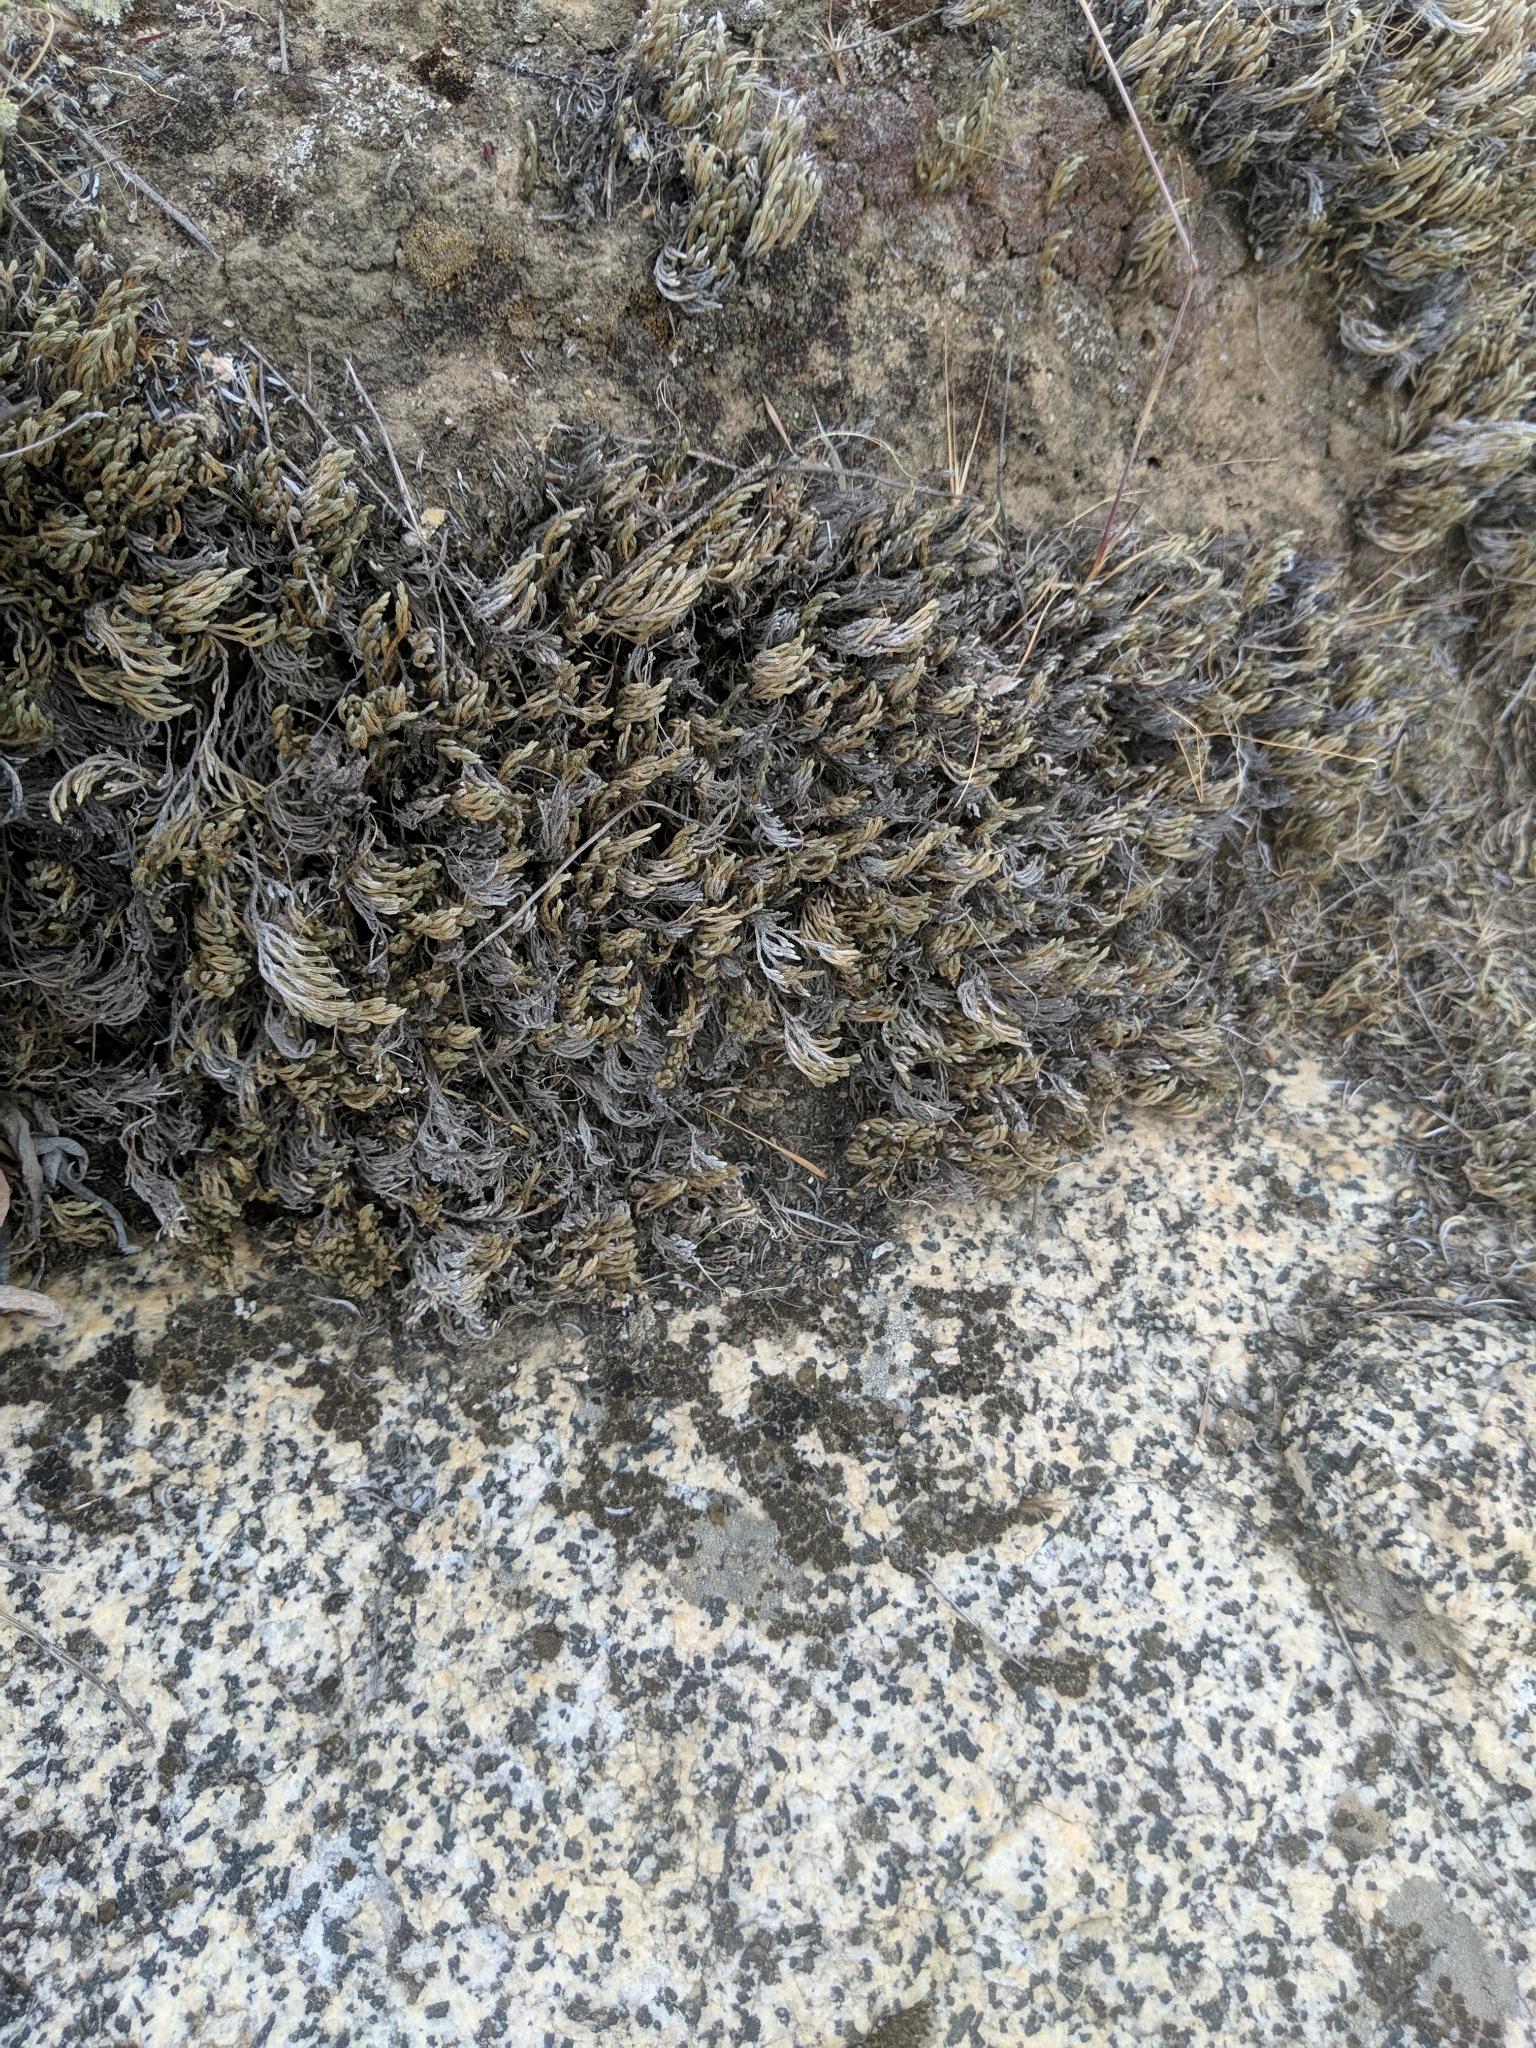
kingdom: Plantae
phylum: Tracheophyta
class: Lycopodiopsida
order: Selaginellales
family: Selaginellaceae
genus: Selaginella
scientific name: Selaginella bigelovii
